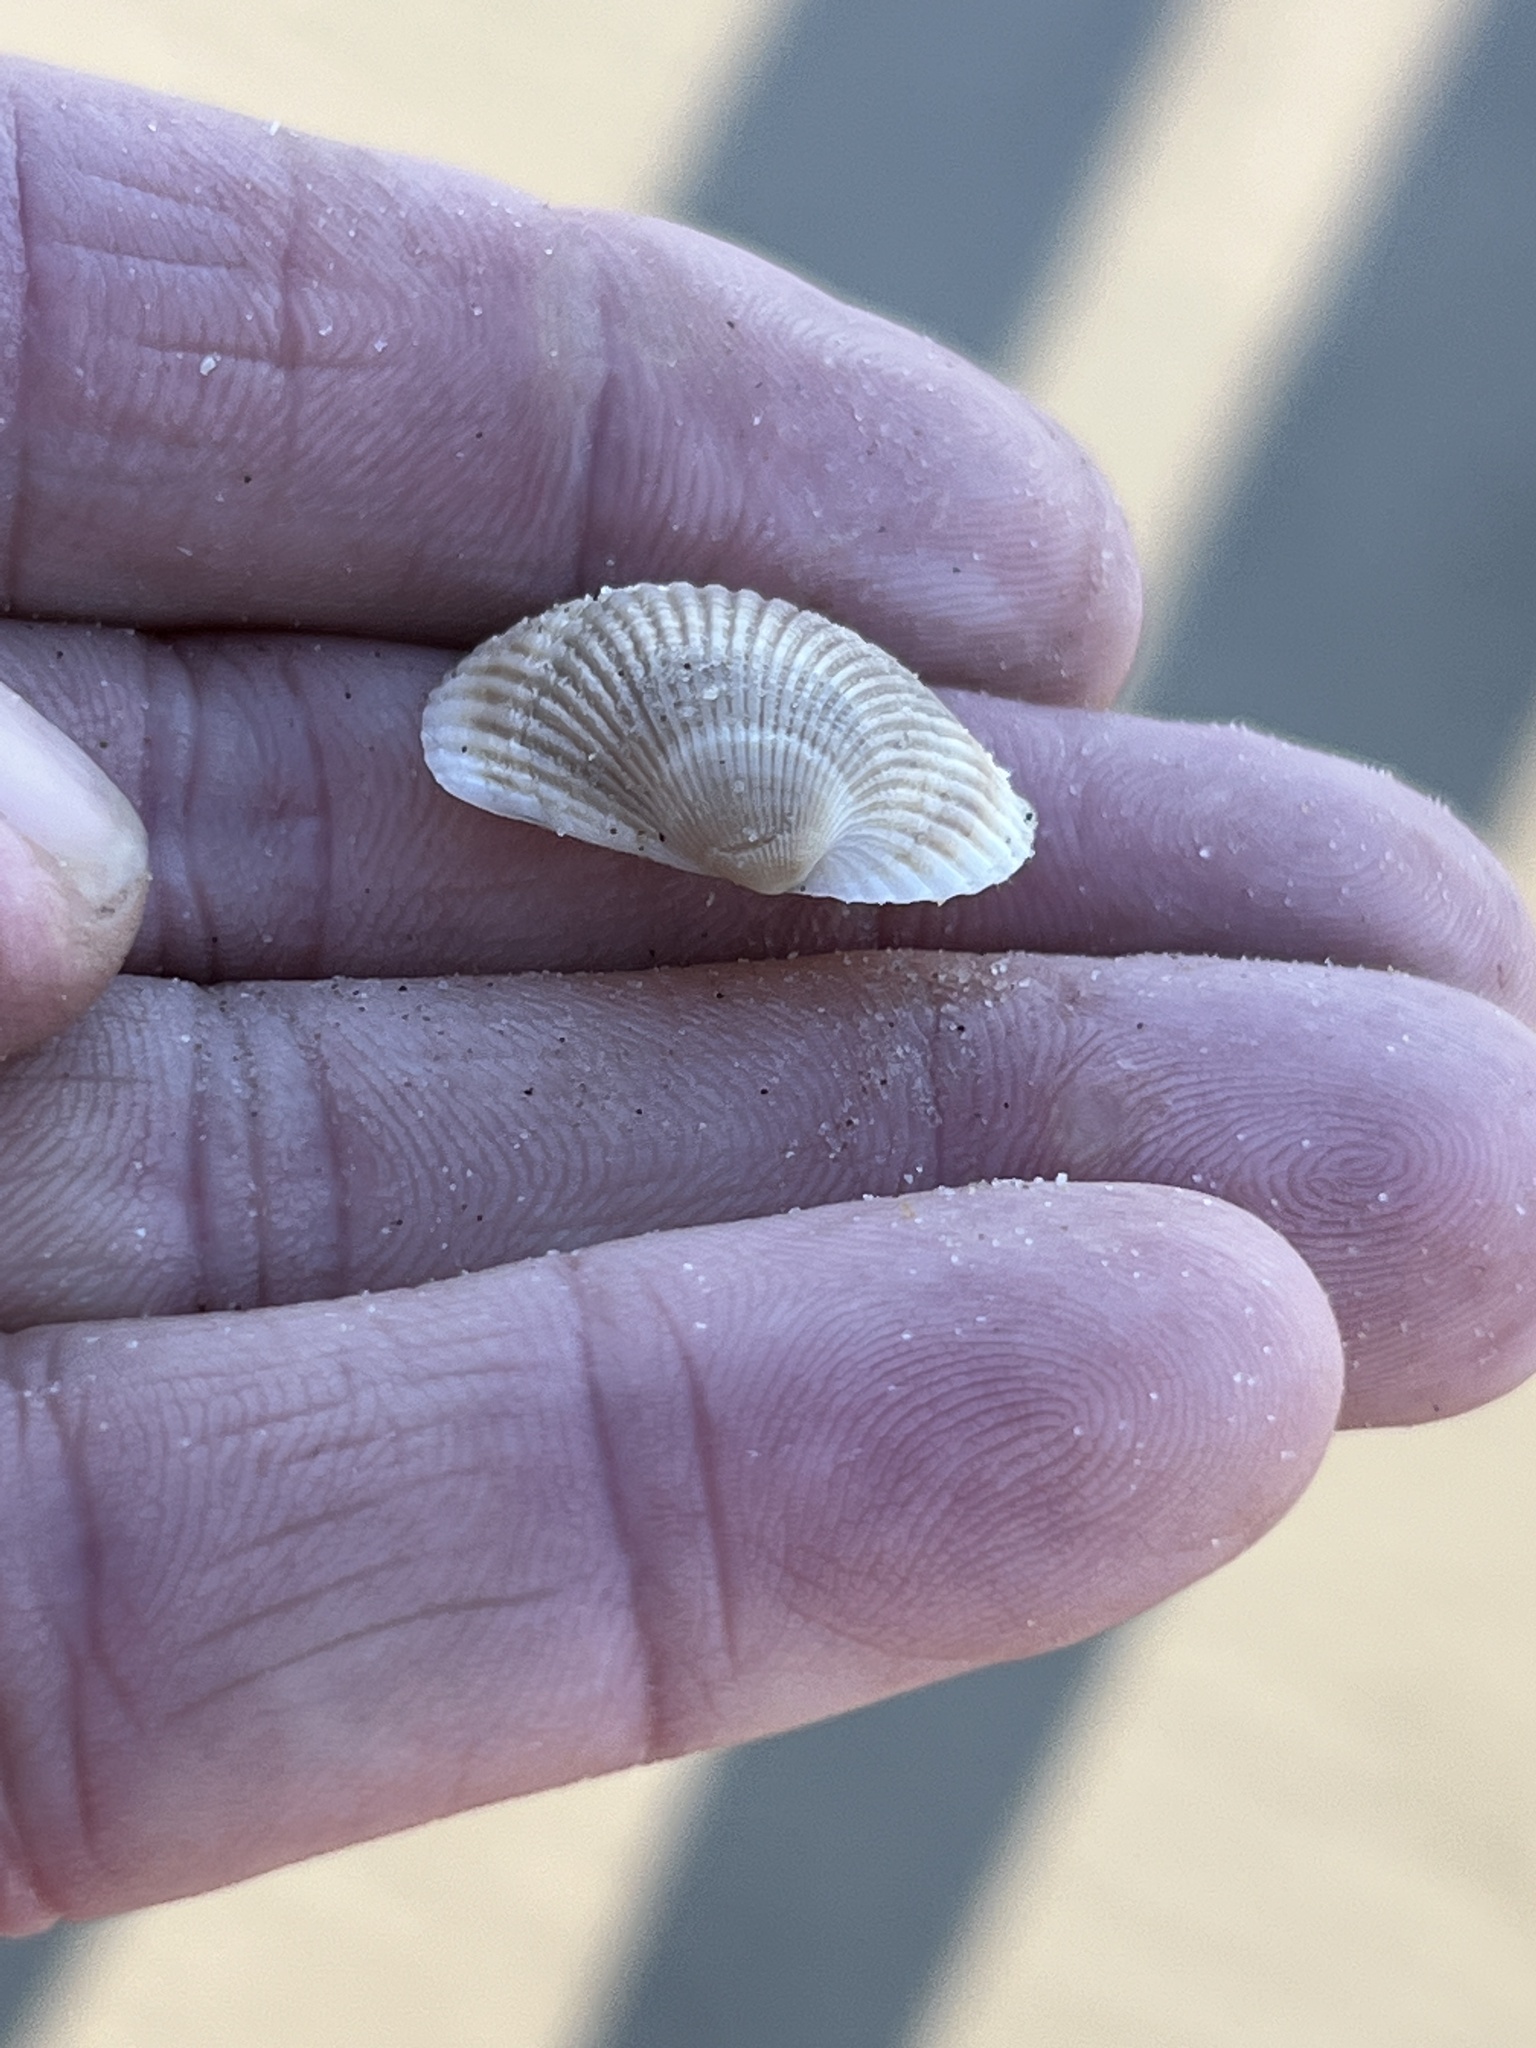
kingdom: Animalia
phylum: Mollusca
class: Bivalvia
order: Arcida
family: Arcidae
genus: Lunarca
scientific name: Lunarca ovalis
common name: Blood ark
